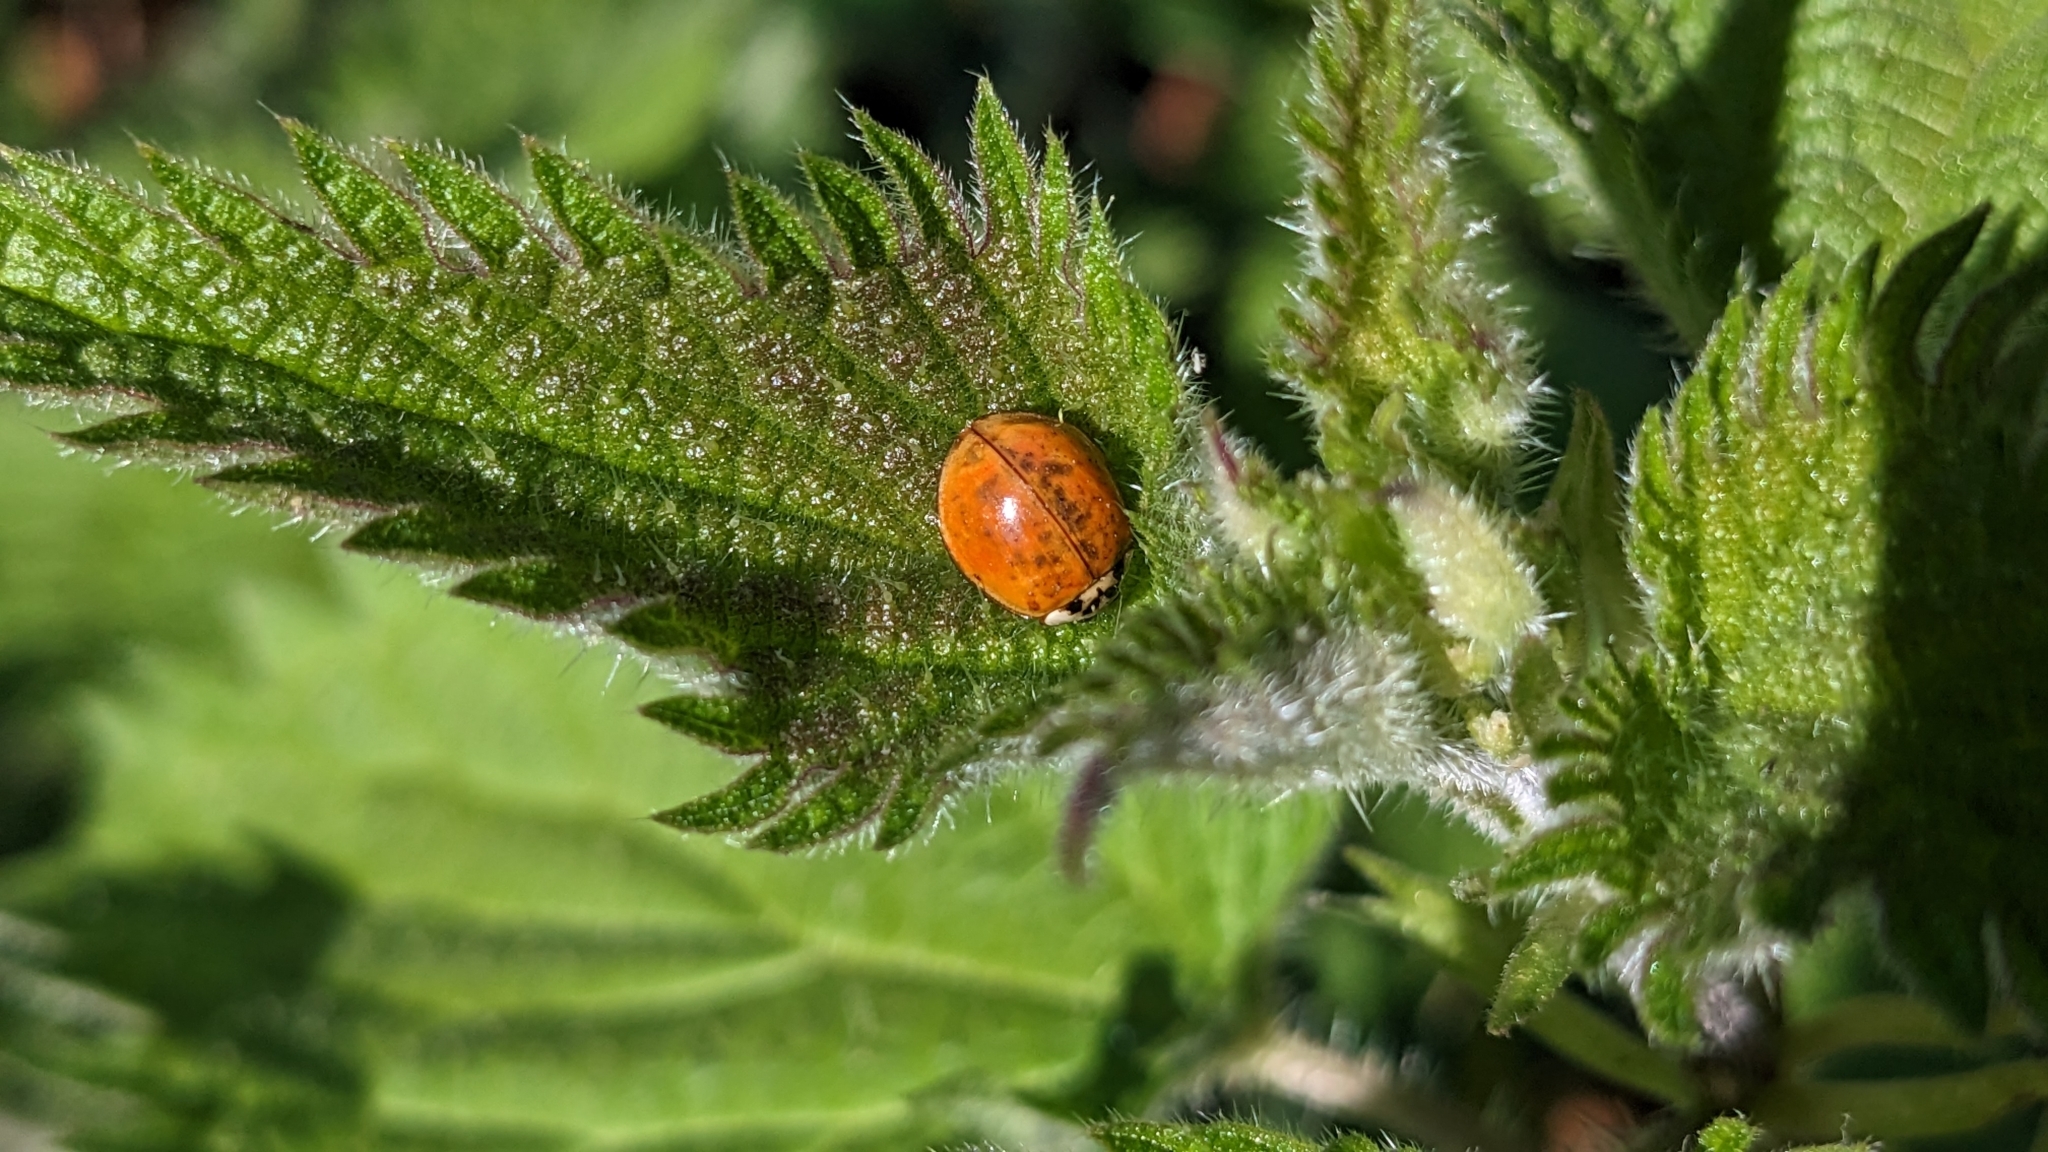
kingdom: Animalia
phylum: Arthropoda
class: Insecta
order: Coleoptera
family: Coccinellidae
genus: Harmonia
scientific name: Harmonia axyridis
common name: Harlequin ladybird
